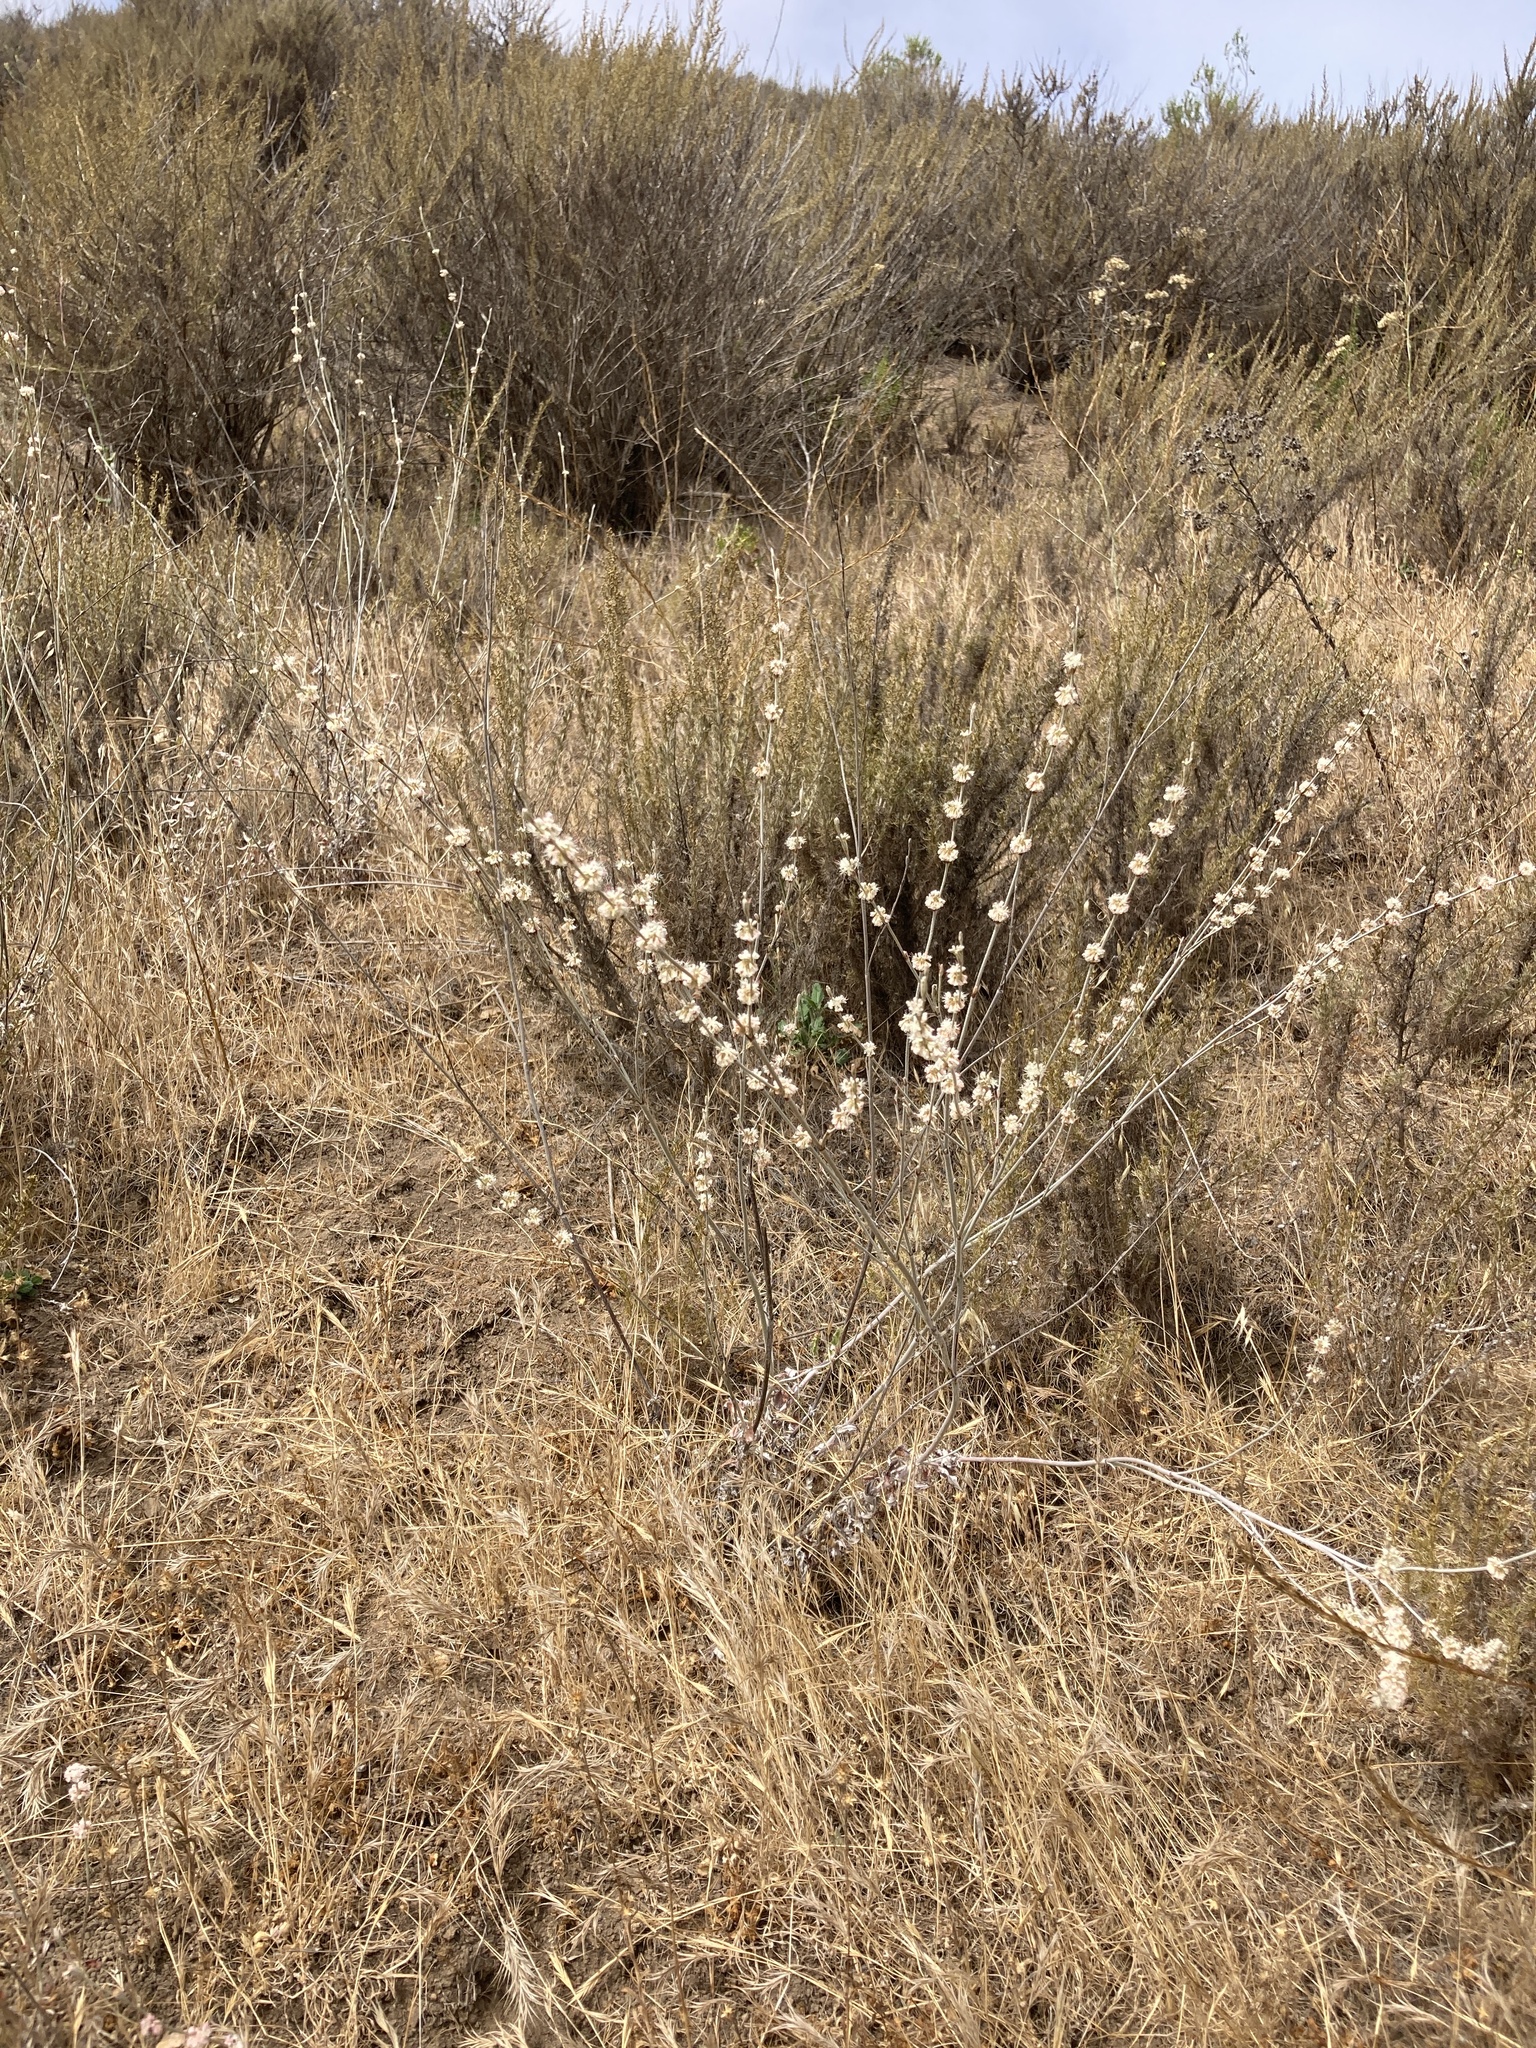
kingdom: Plantae
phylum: Tracheophyta
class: Magnoliopsida
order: Caryophyllales
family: Polygonaceae
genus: Eriogonum
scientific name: Eriogonum elongatum
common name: Long-stem wild buckwheat
